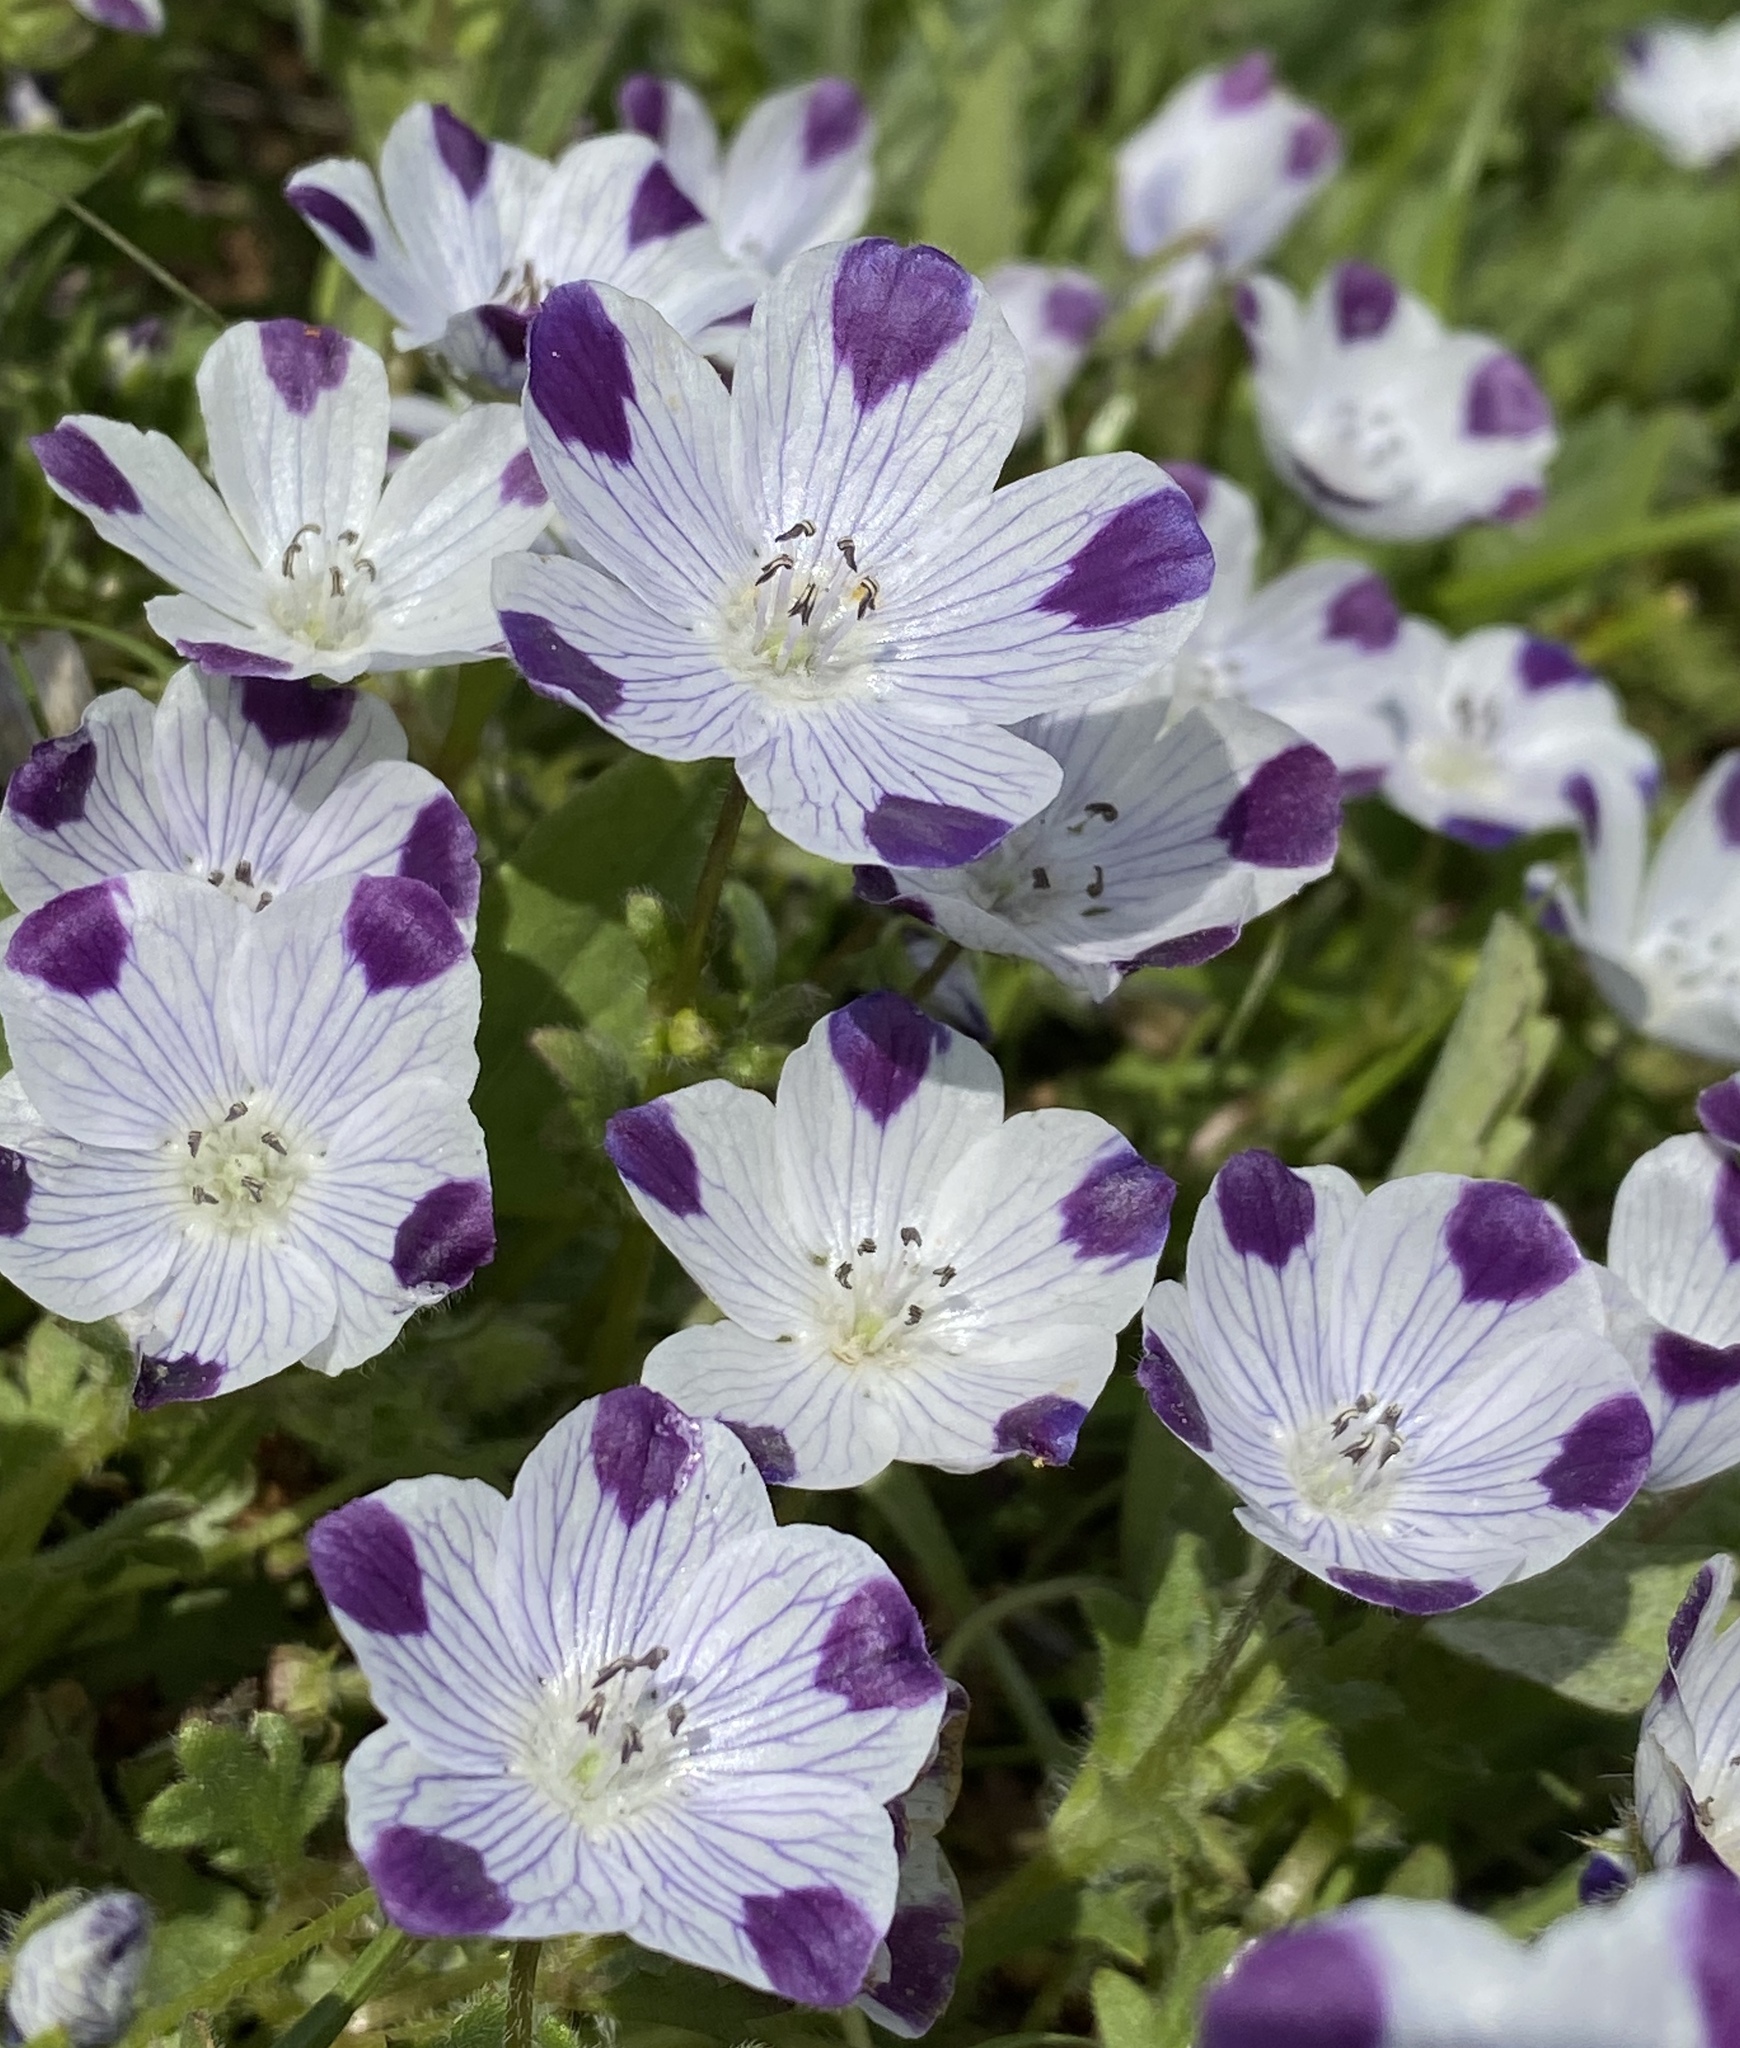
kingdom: Plantae
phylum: Tracheophyta
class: Magnoliopsida
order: Boraginales
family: Hydrophyllaceae
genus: Nemophila
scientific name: Nemophila maculata
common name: Fivespot
